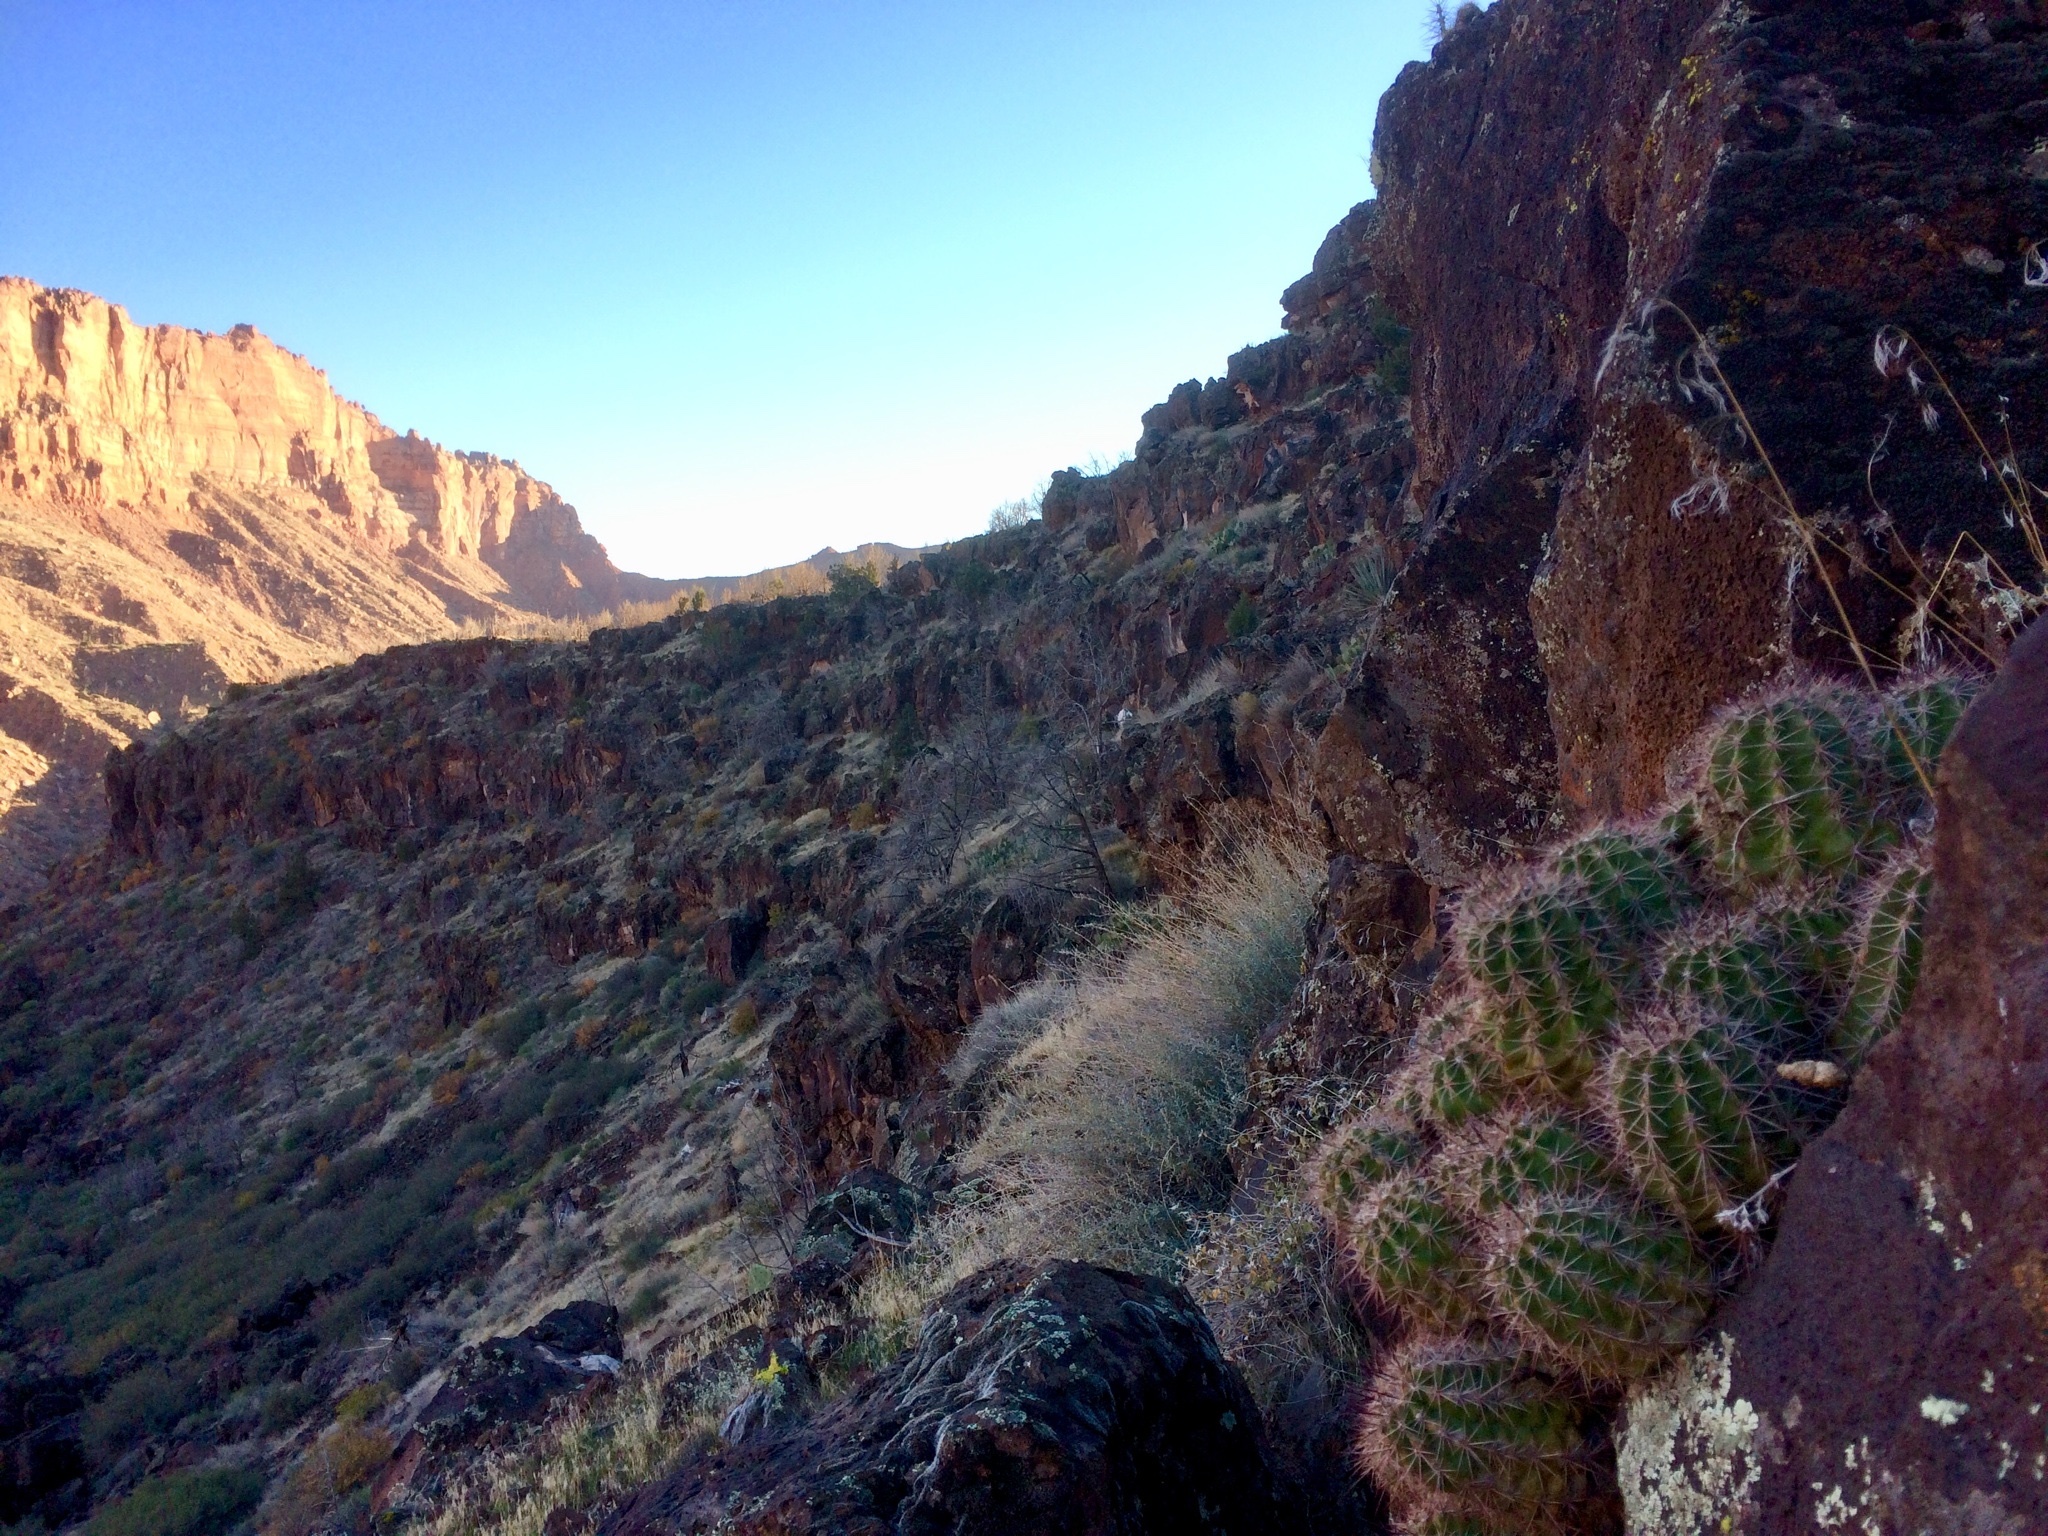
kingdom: Plantae
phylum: Tracheophyta
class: Magnoliopsida
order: Caryophyllales
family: Cactaceae
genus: Echinocereus
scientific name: Echinocereus bakeri
